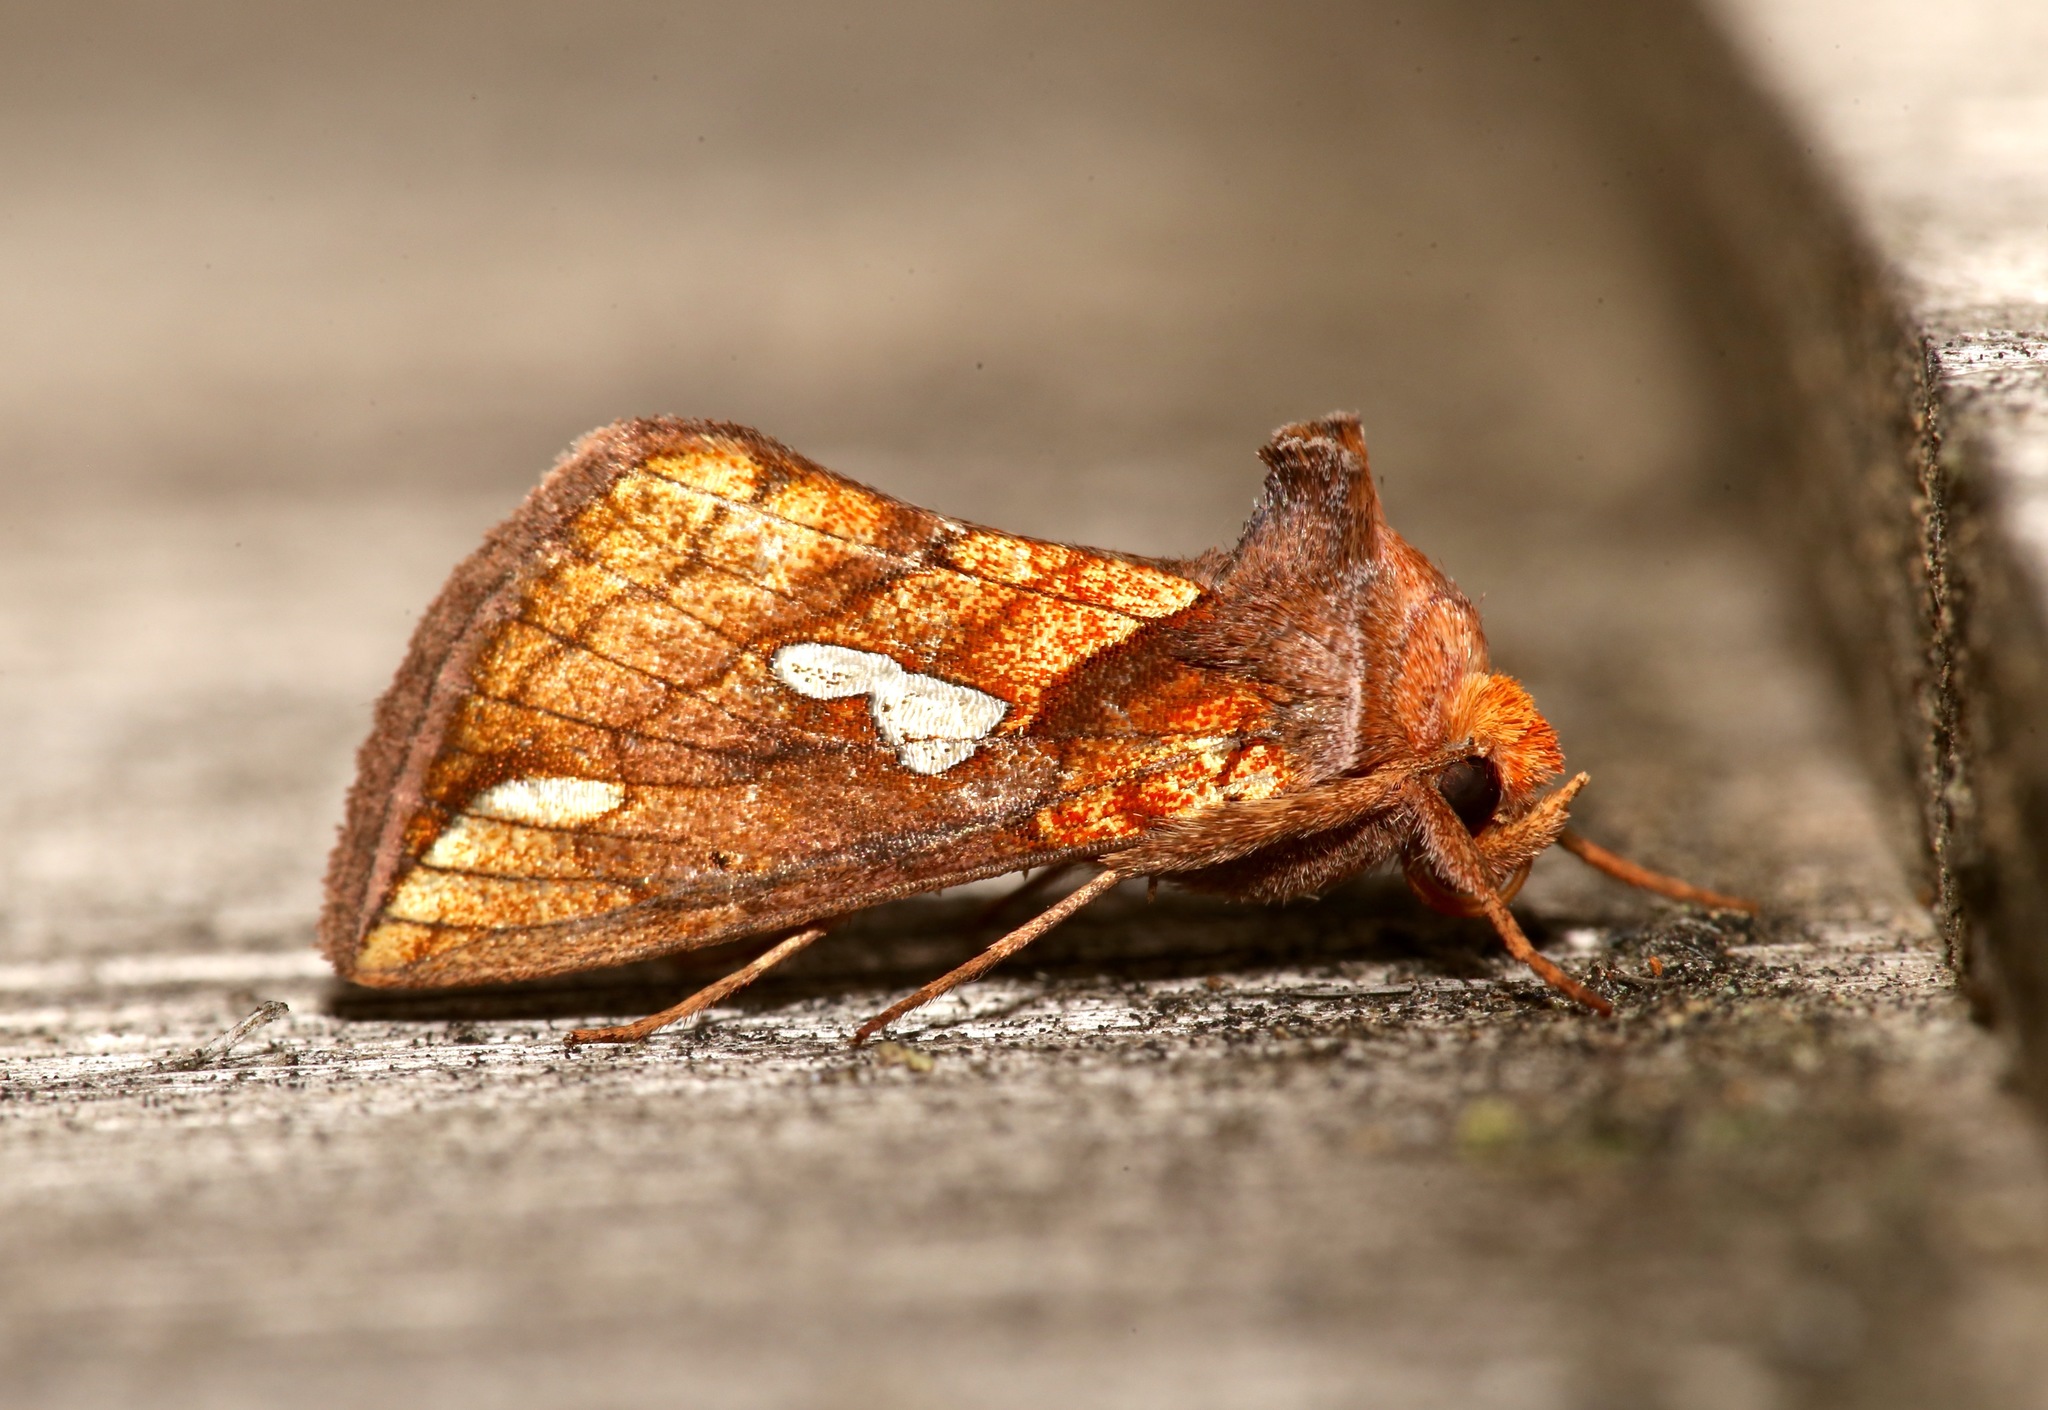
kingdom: Animalia
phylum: Arthropoda
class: Insecta
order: Lepidoptera
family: Noctuidae
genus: Plusia
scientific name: Plusia putnami
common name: Lempke's gold spot
